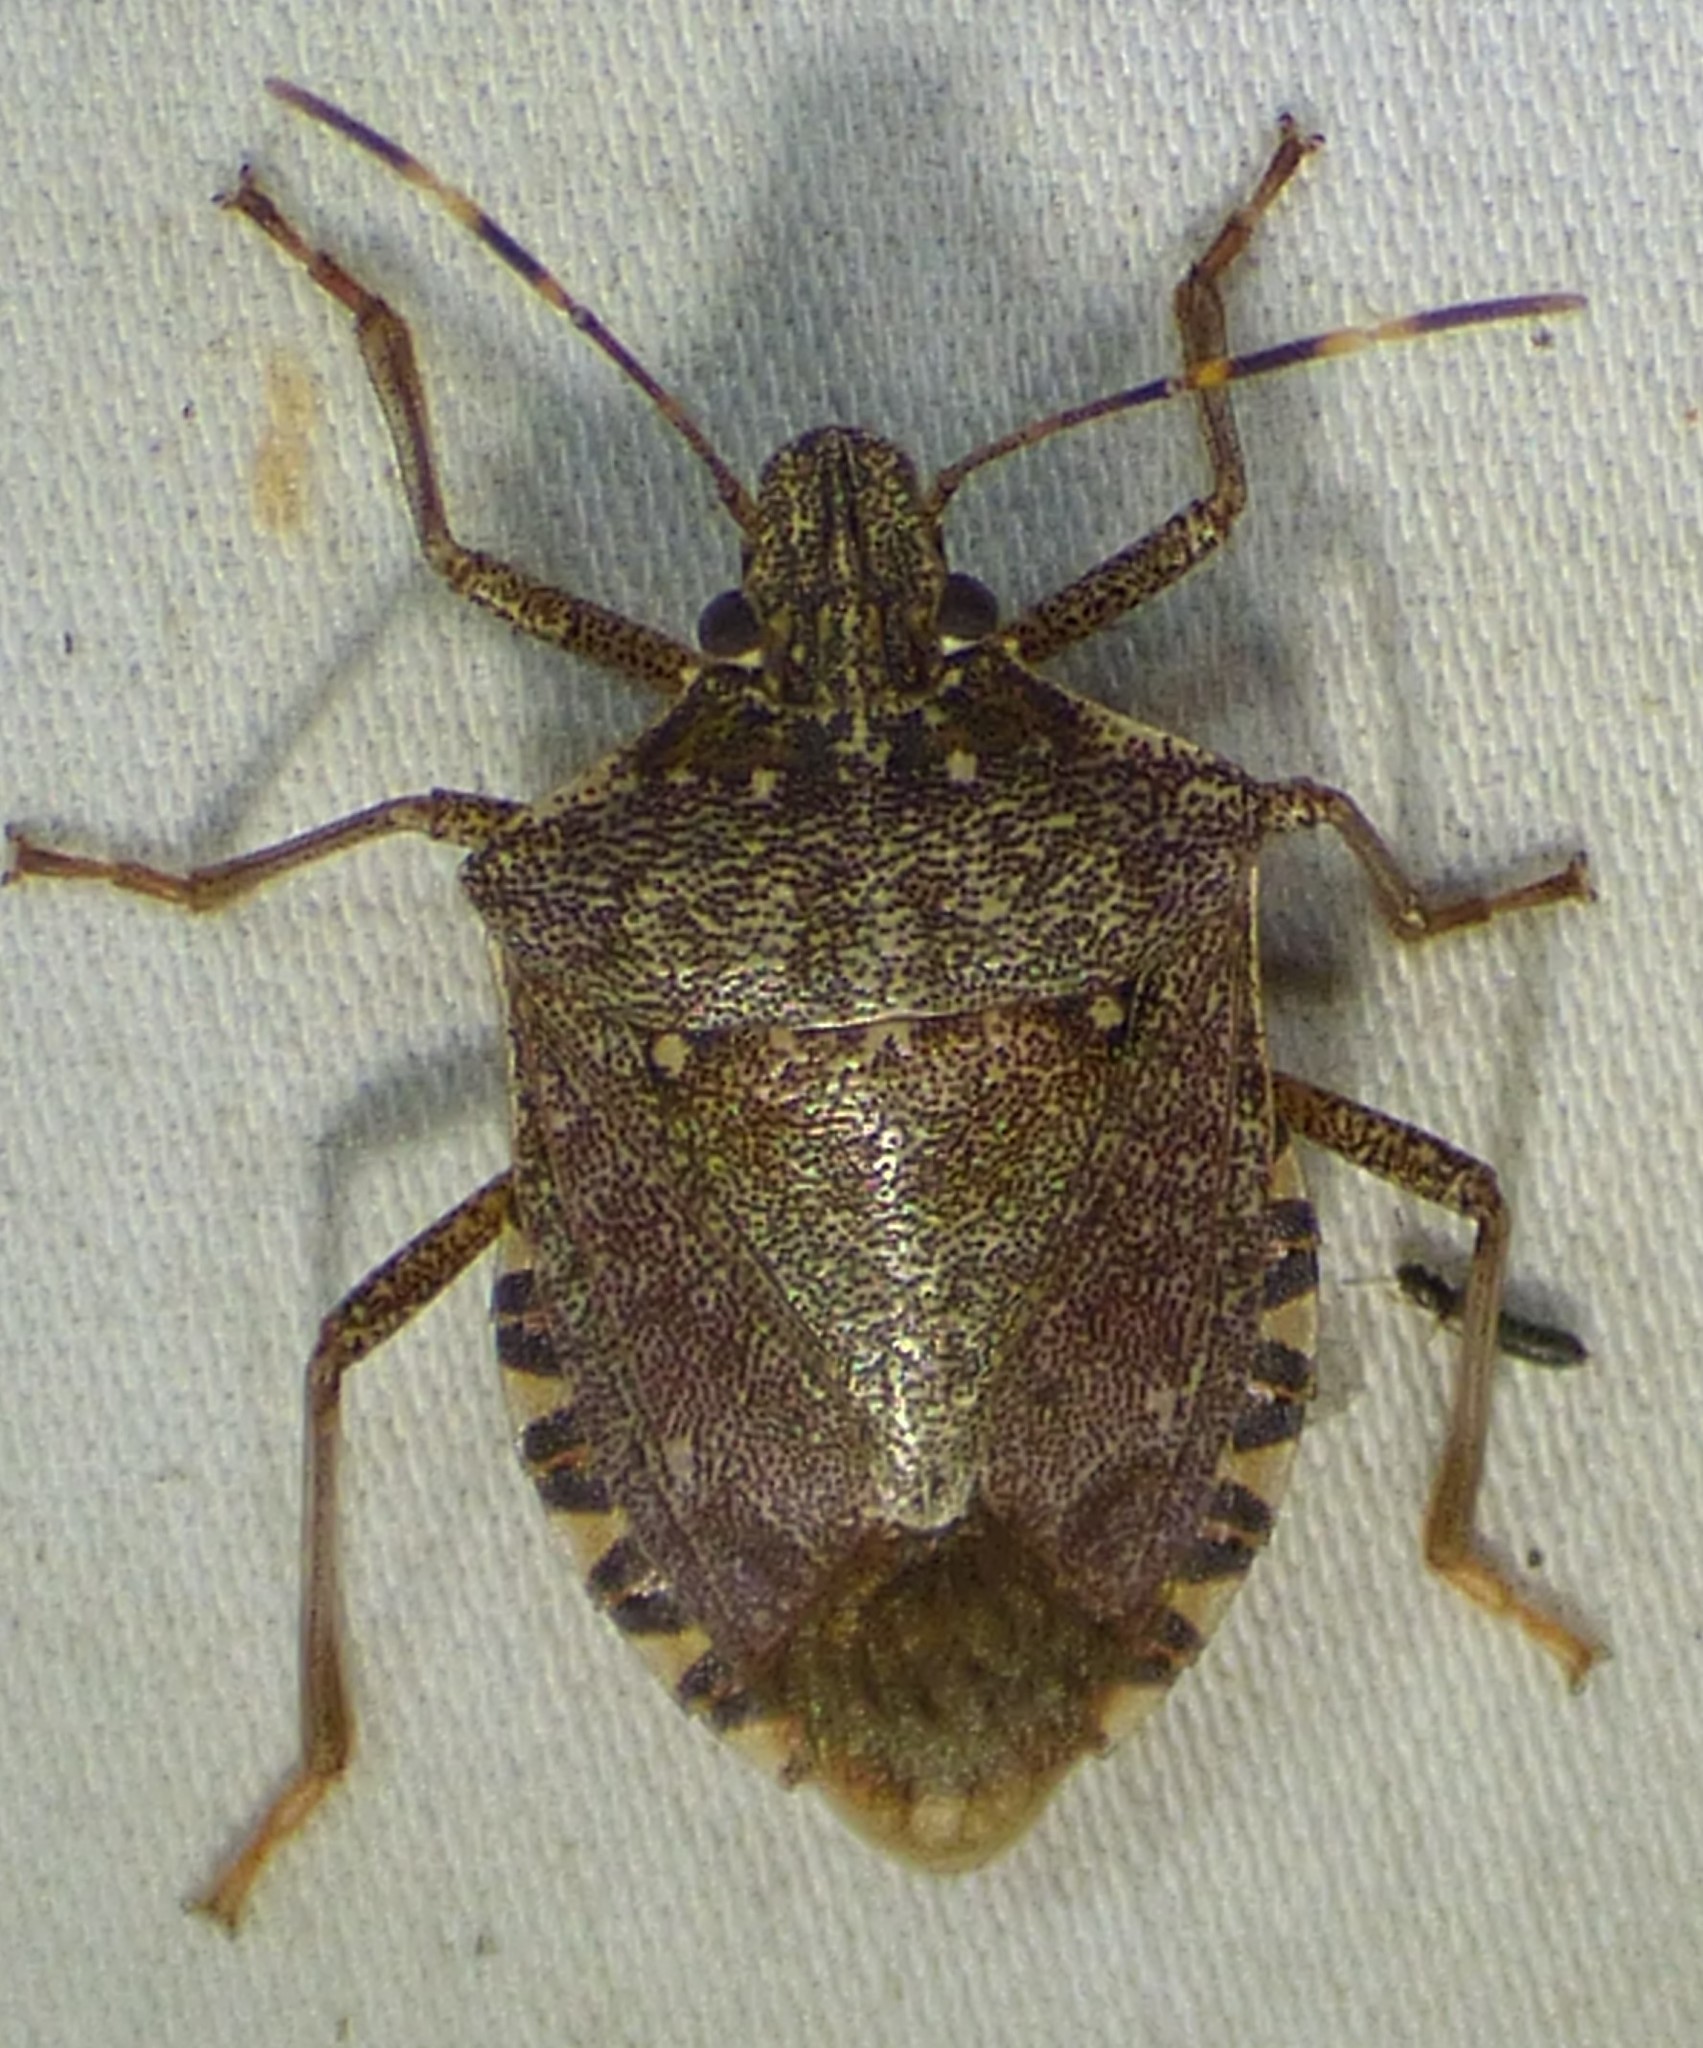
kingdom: Animalia
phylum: Arthropoda
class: Insecta
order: Hemiptera
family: Pentatomidae
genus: Halyomorpha
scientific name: Halyomorpha halys
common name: Brown marmorated stink bug
